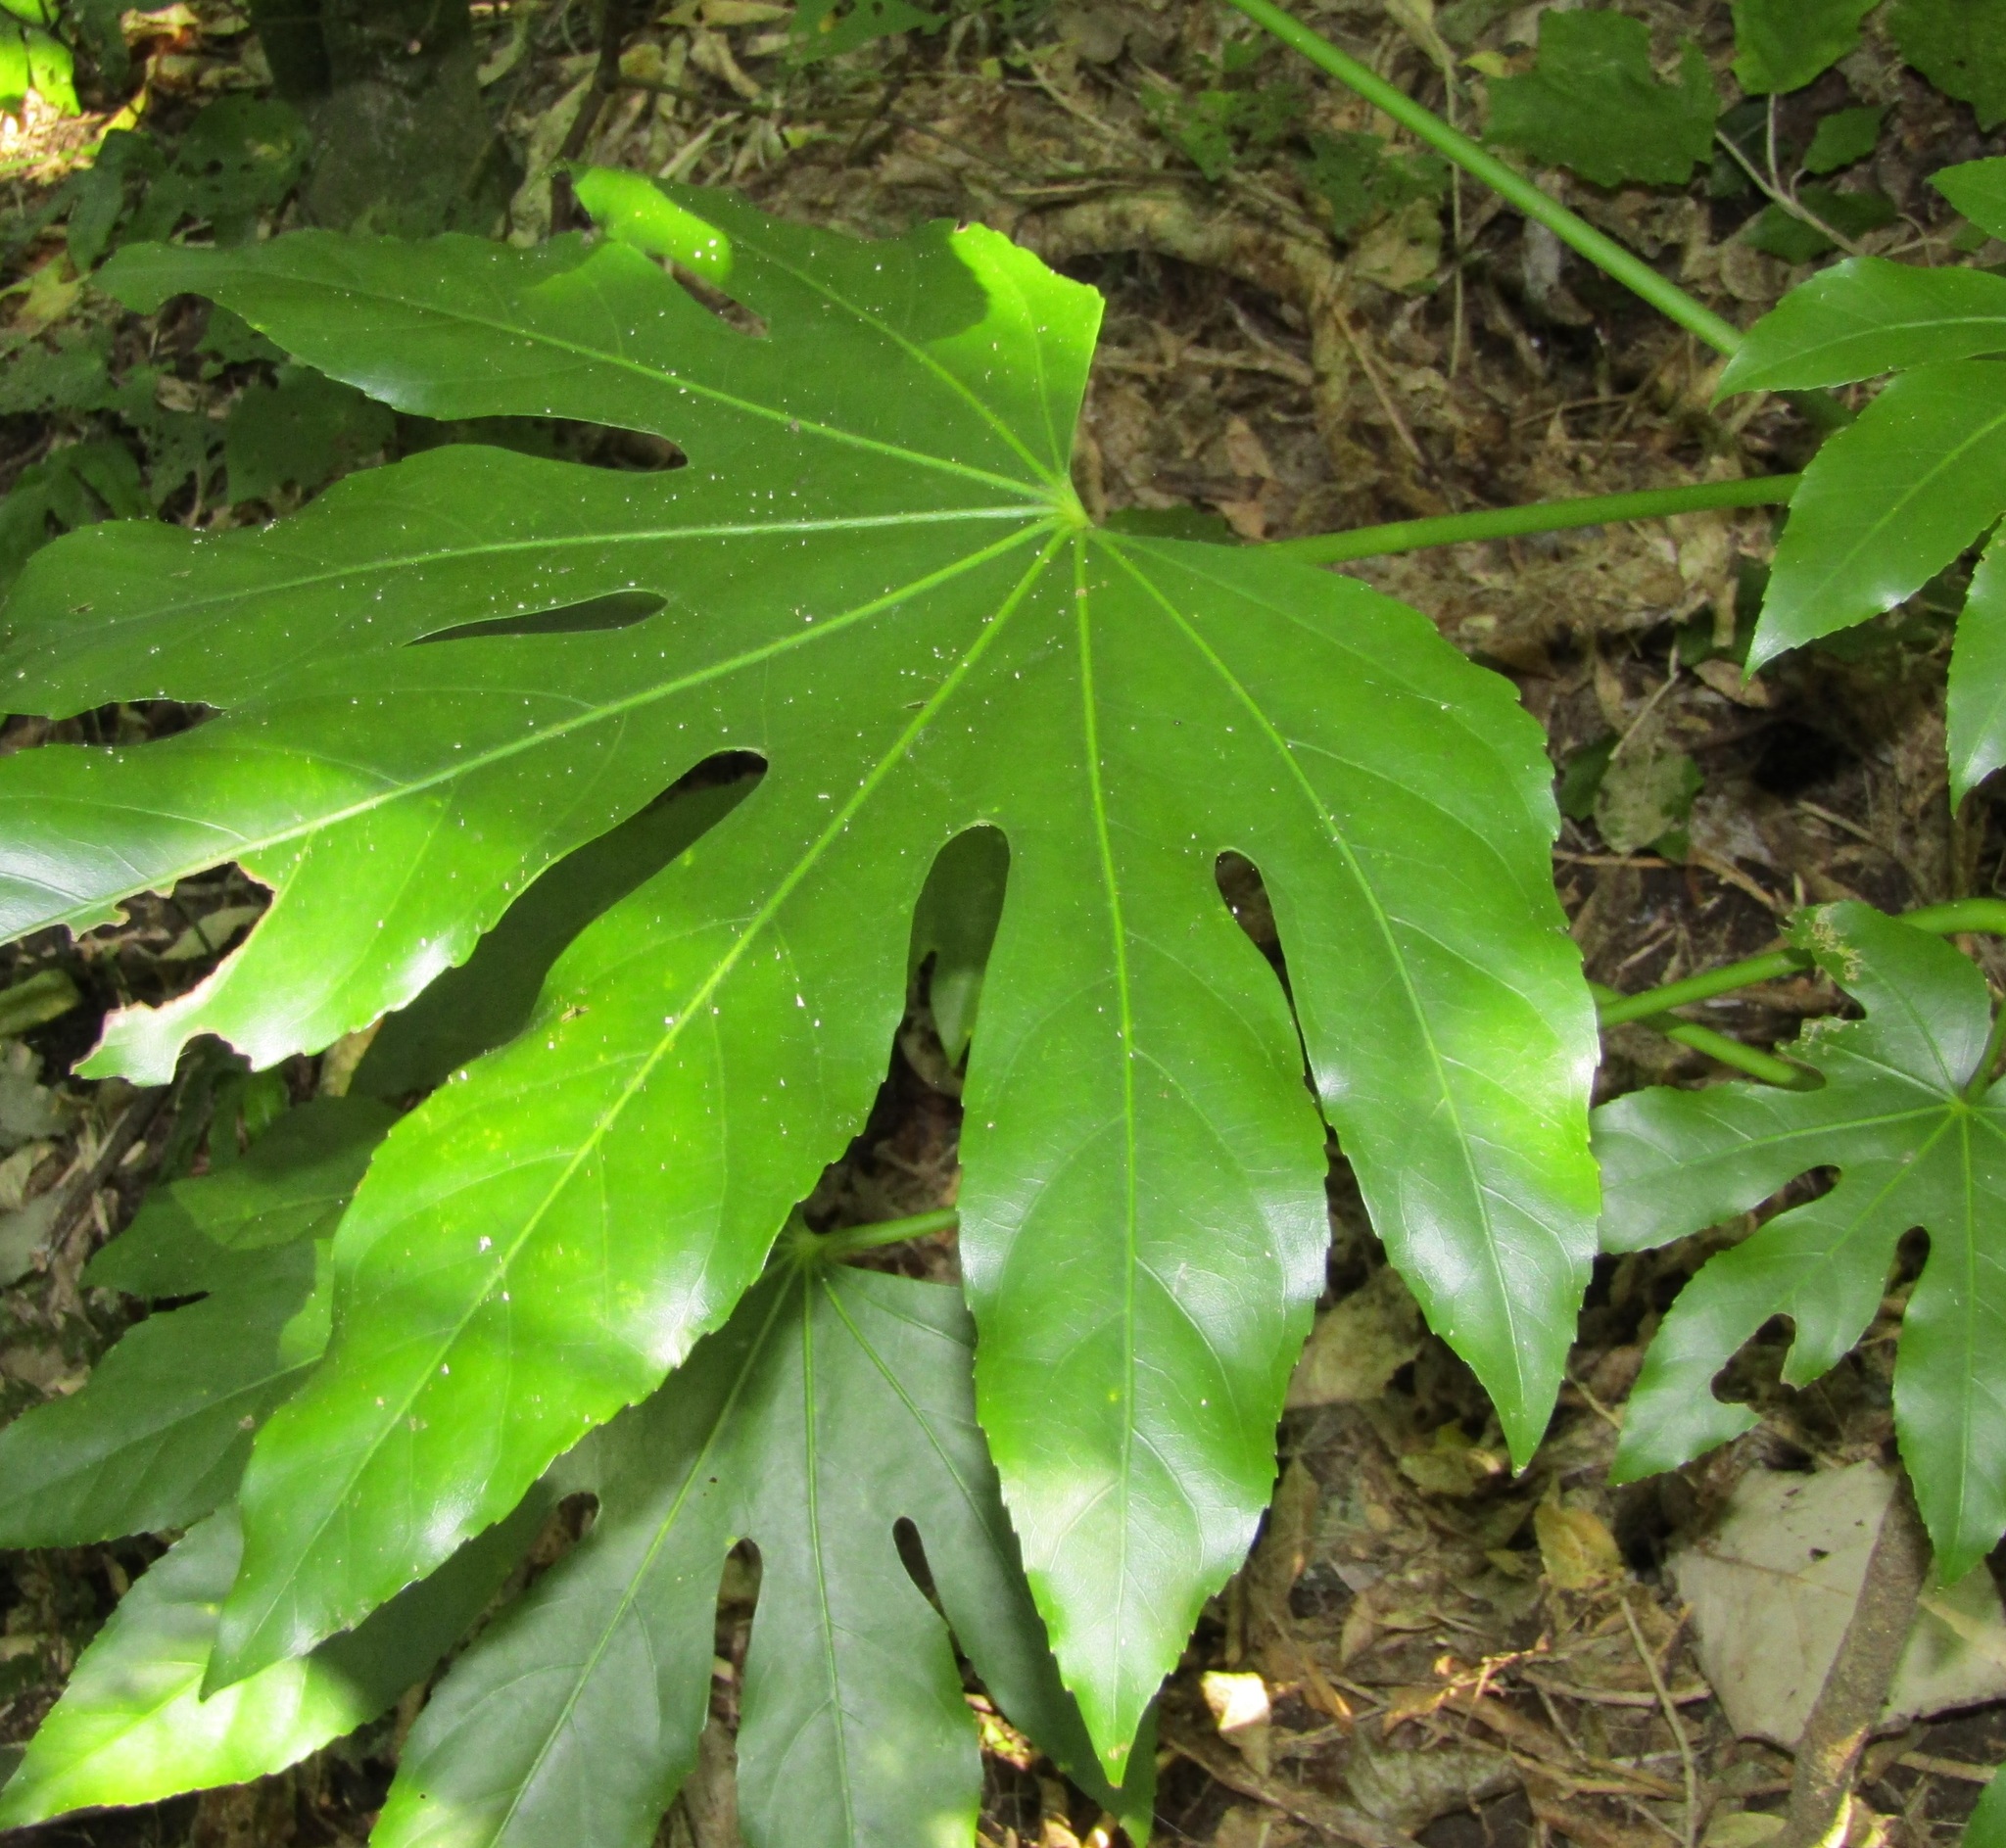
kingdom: Plantae
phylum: Tracheophyta
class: Magnoliopsida
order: Apiales
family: Araliaceae
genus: Fatsia
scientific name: Fatsia japonica
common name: Fatsia
